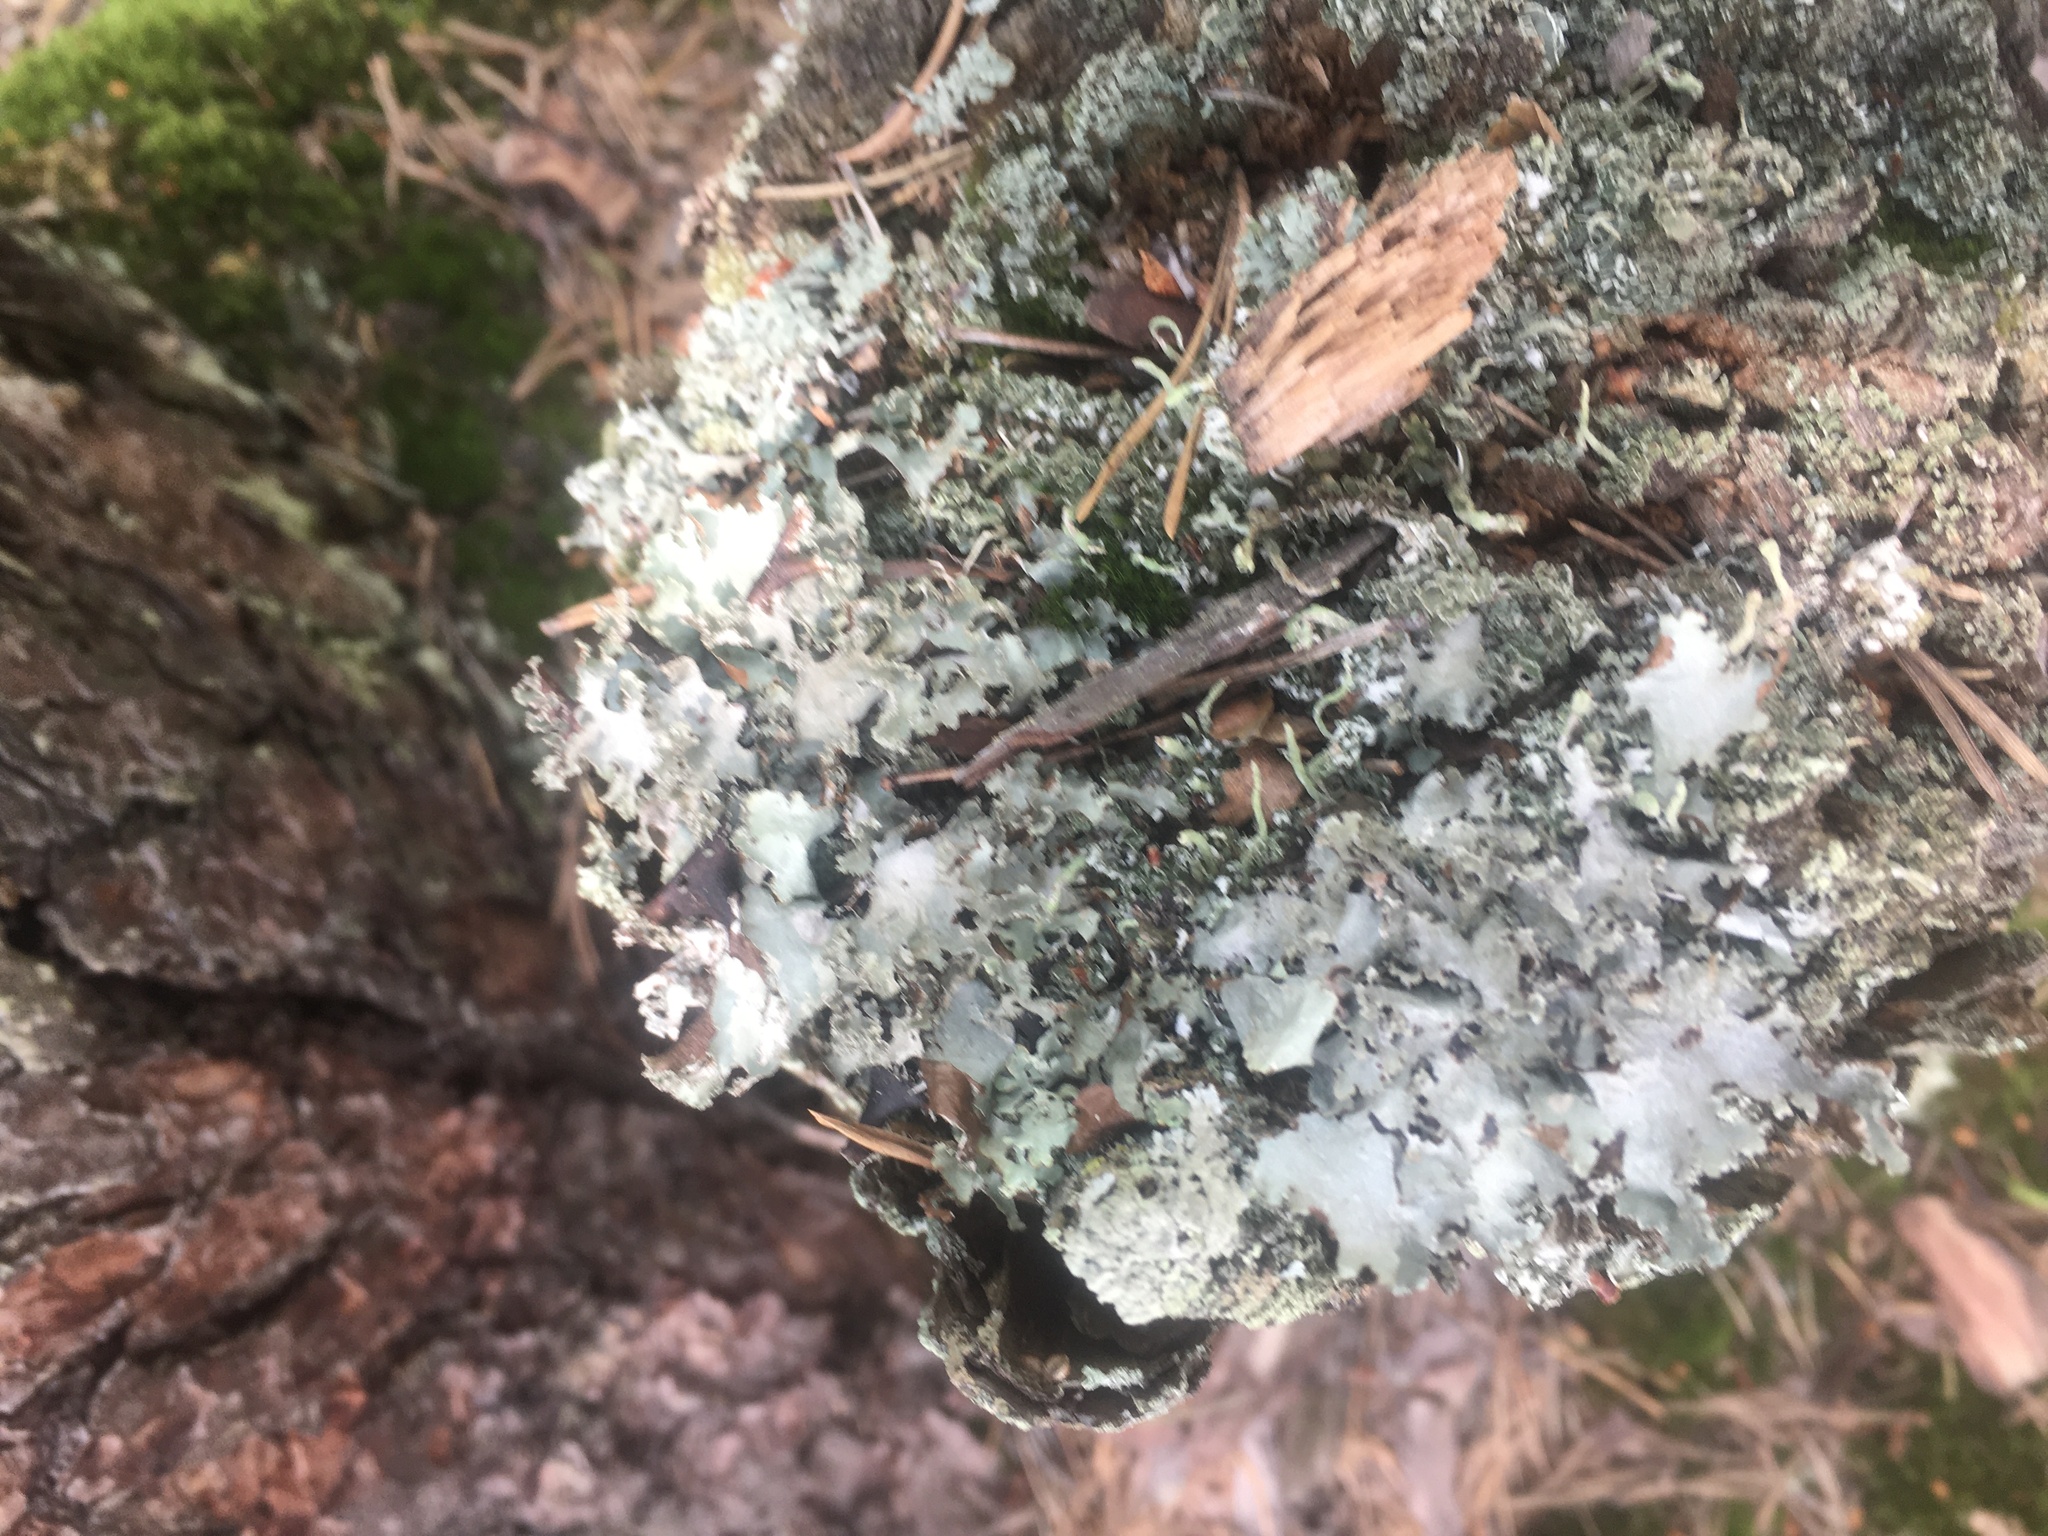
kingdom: Fungi
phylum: Ascomycota
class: Lecanoromycetes
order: Lecanorales
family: Parmeliaceae
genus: Platismatia
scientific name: Platismatia glauca
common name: Varied rag lichen
